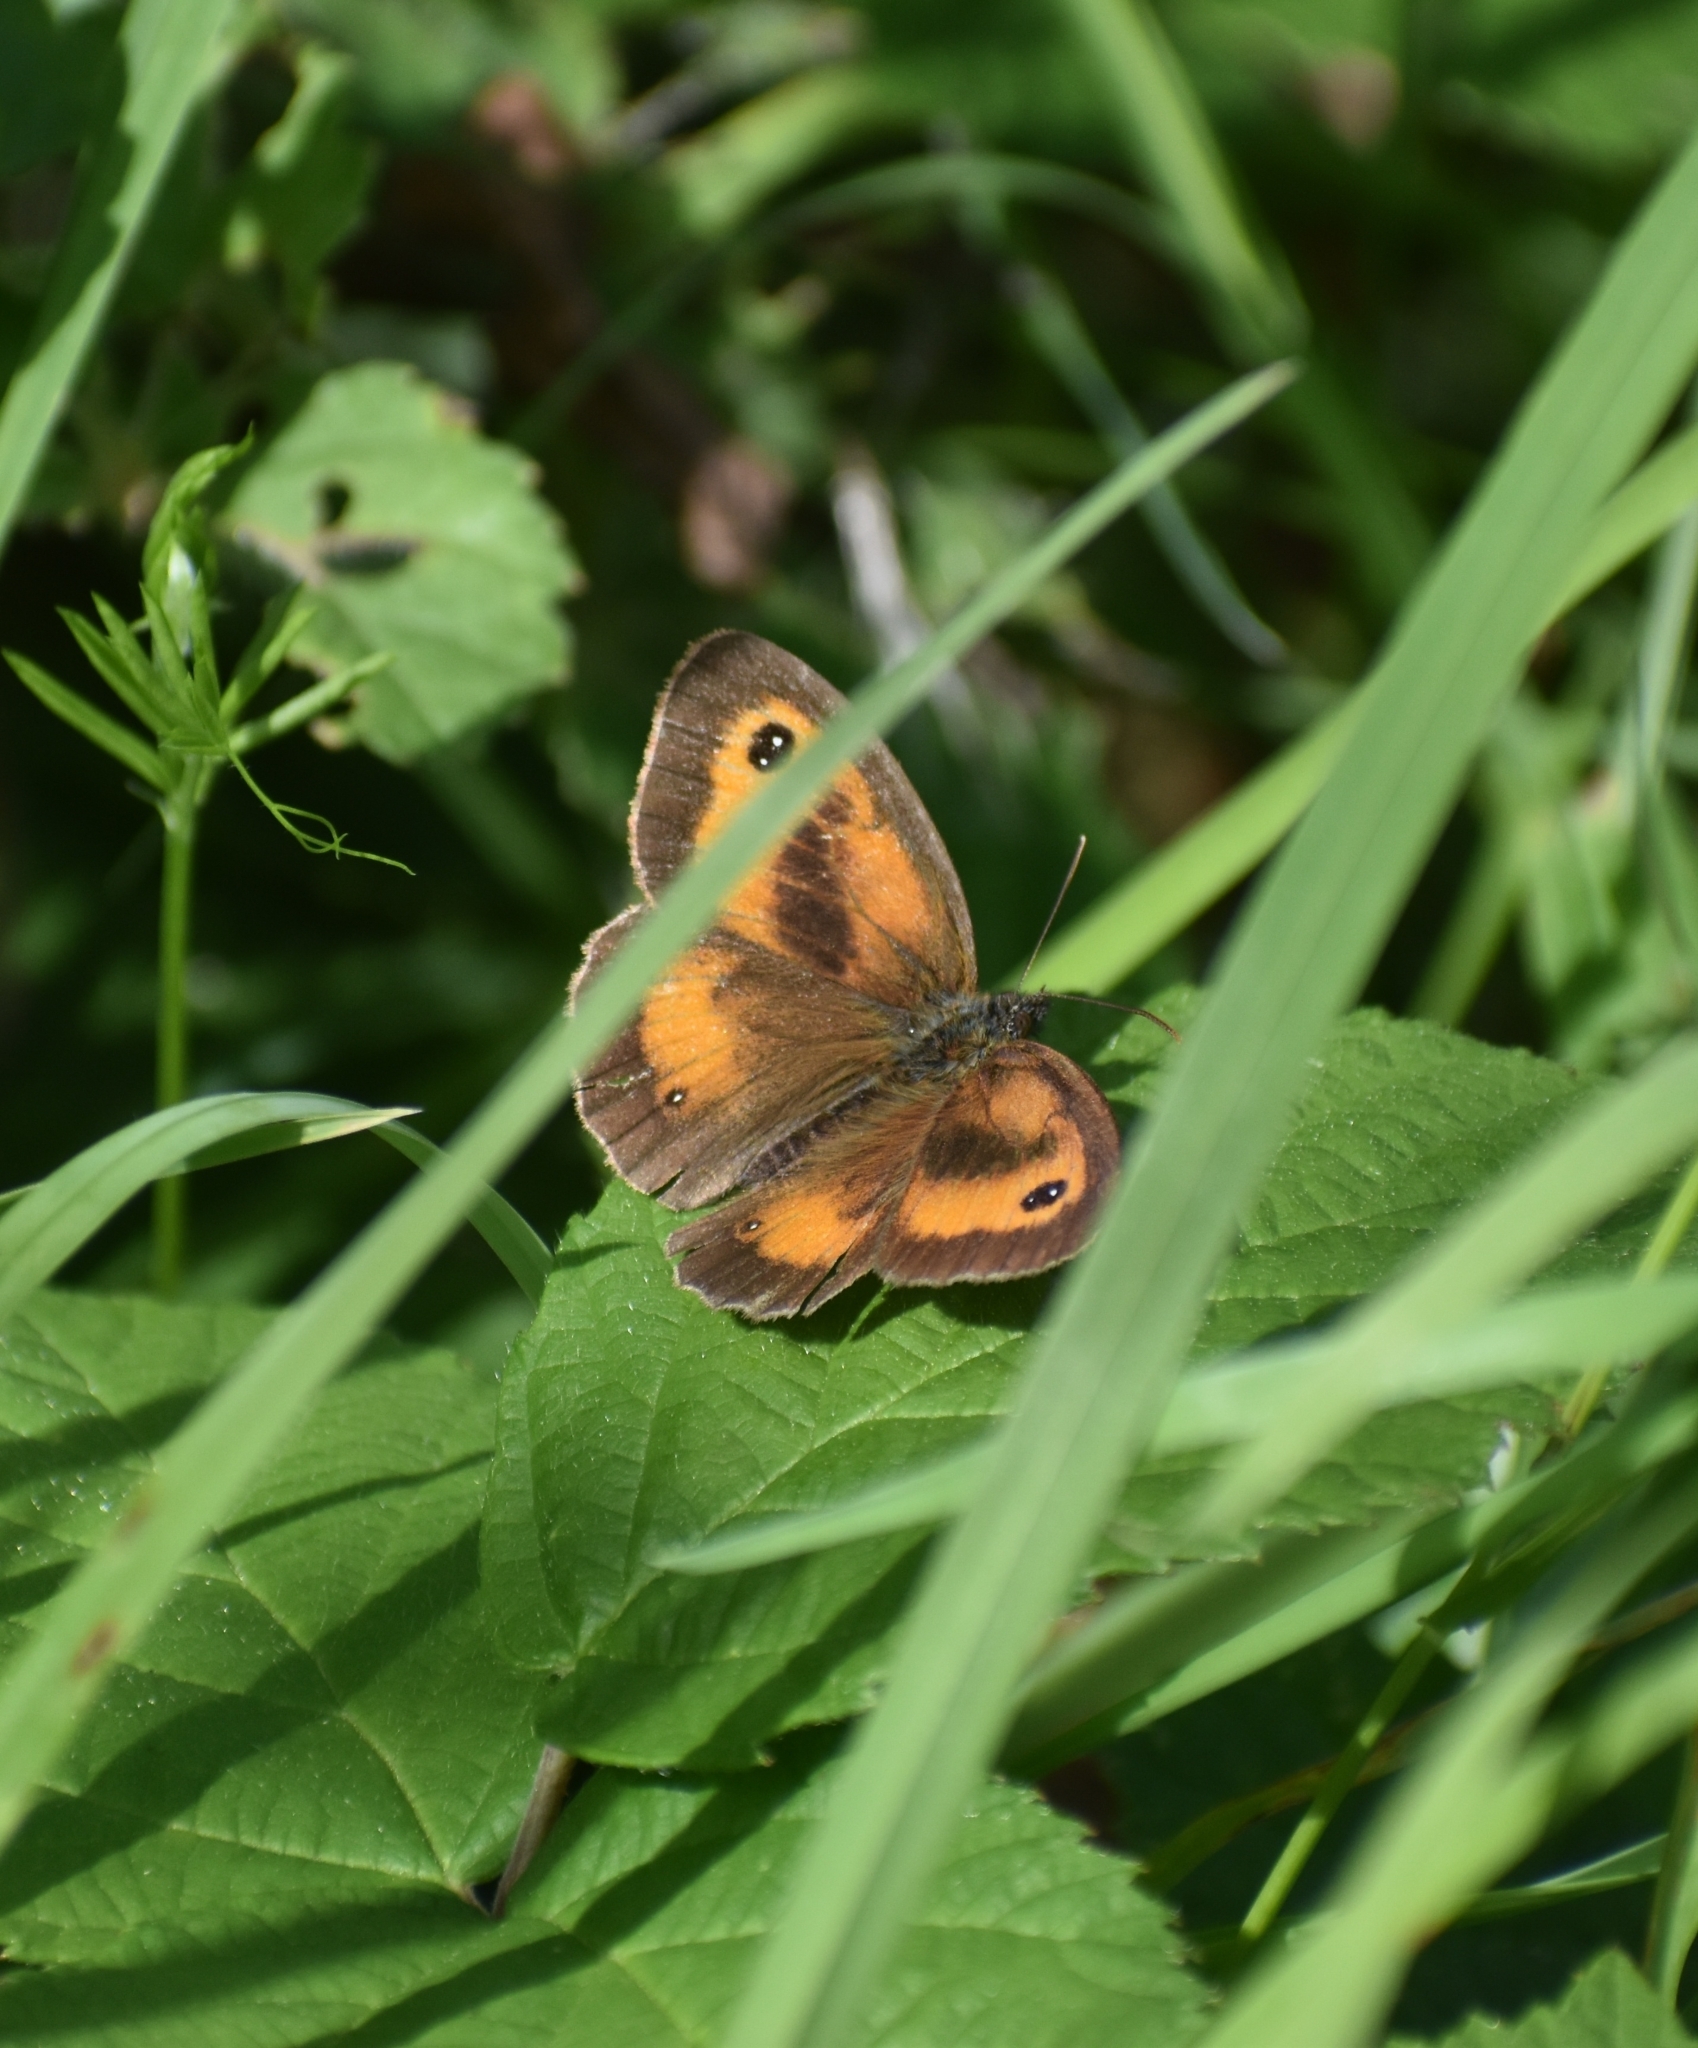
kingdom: Animalia
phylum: Arthropoda
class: Insecta
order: Lepidoptera
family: Nymphalidae
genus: Pyronia
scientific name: Pyronia tithonus
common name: Gatekeeper
